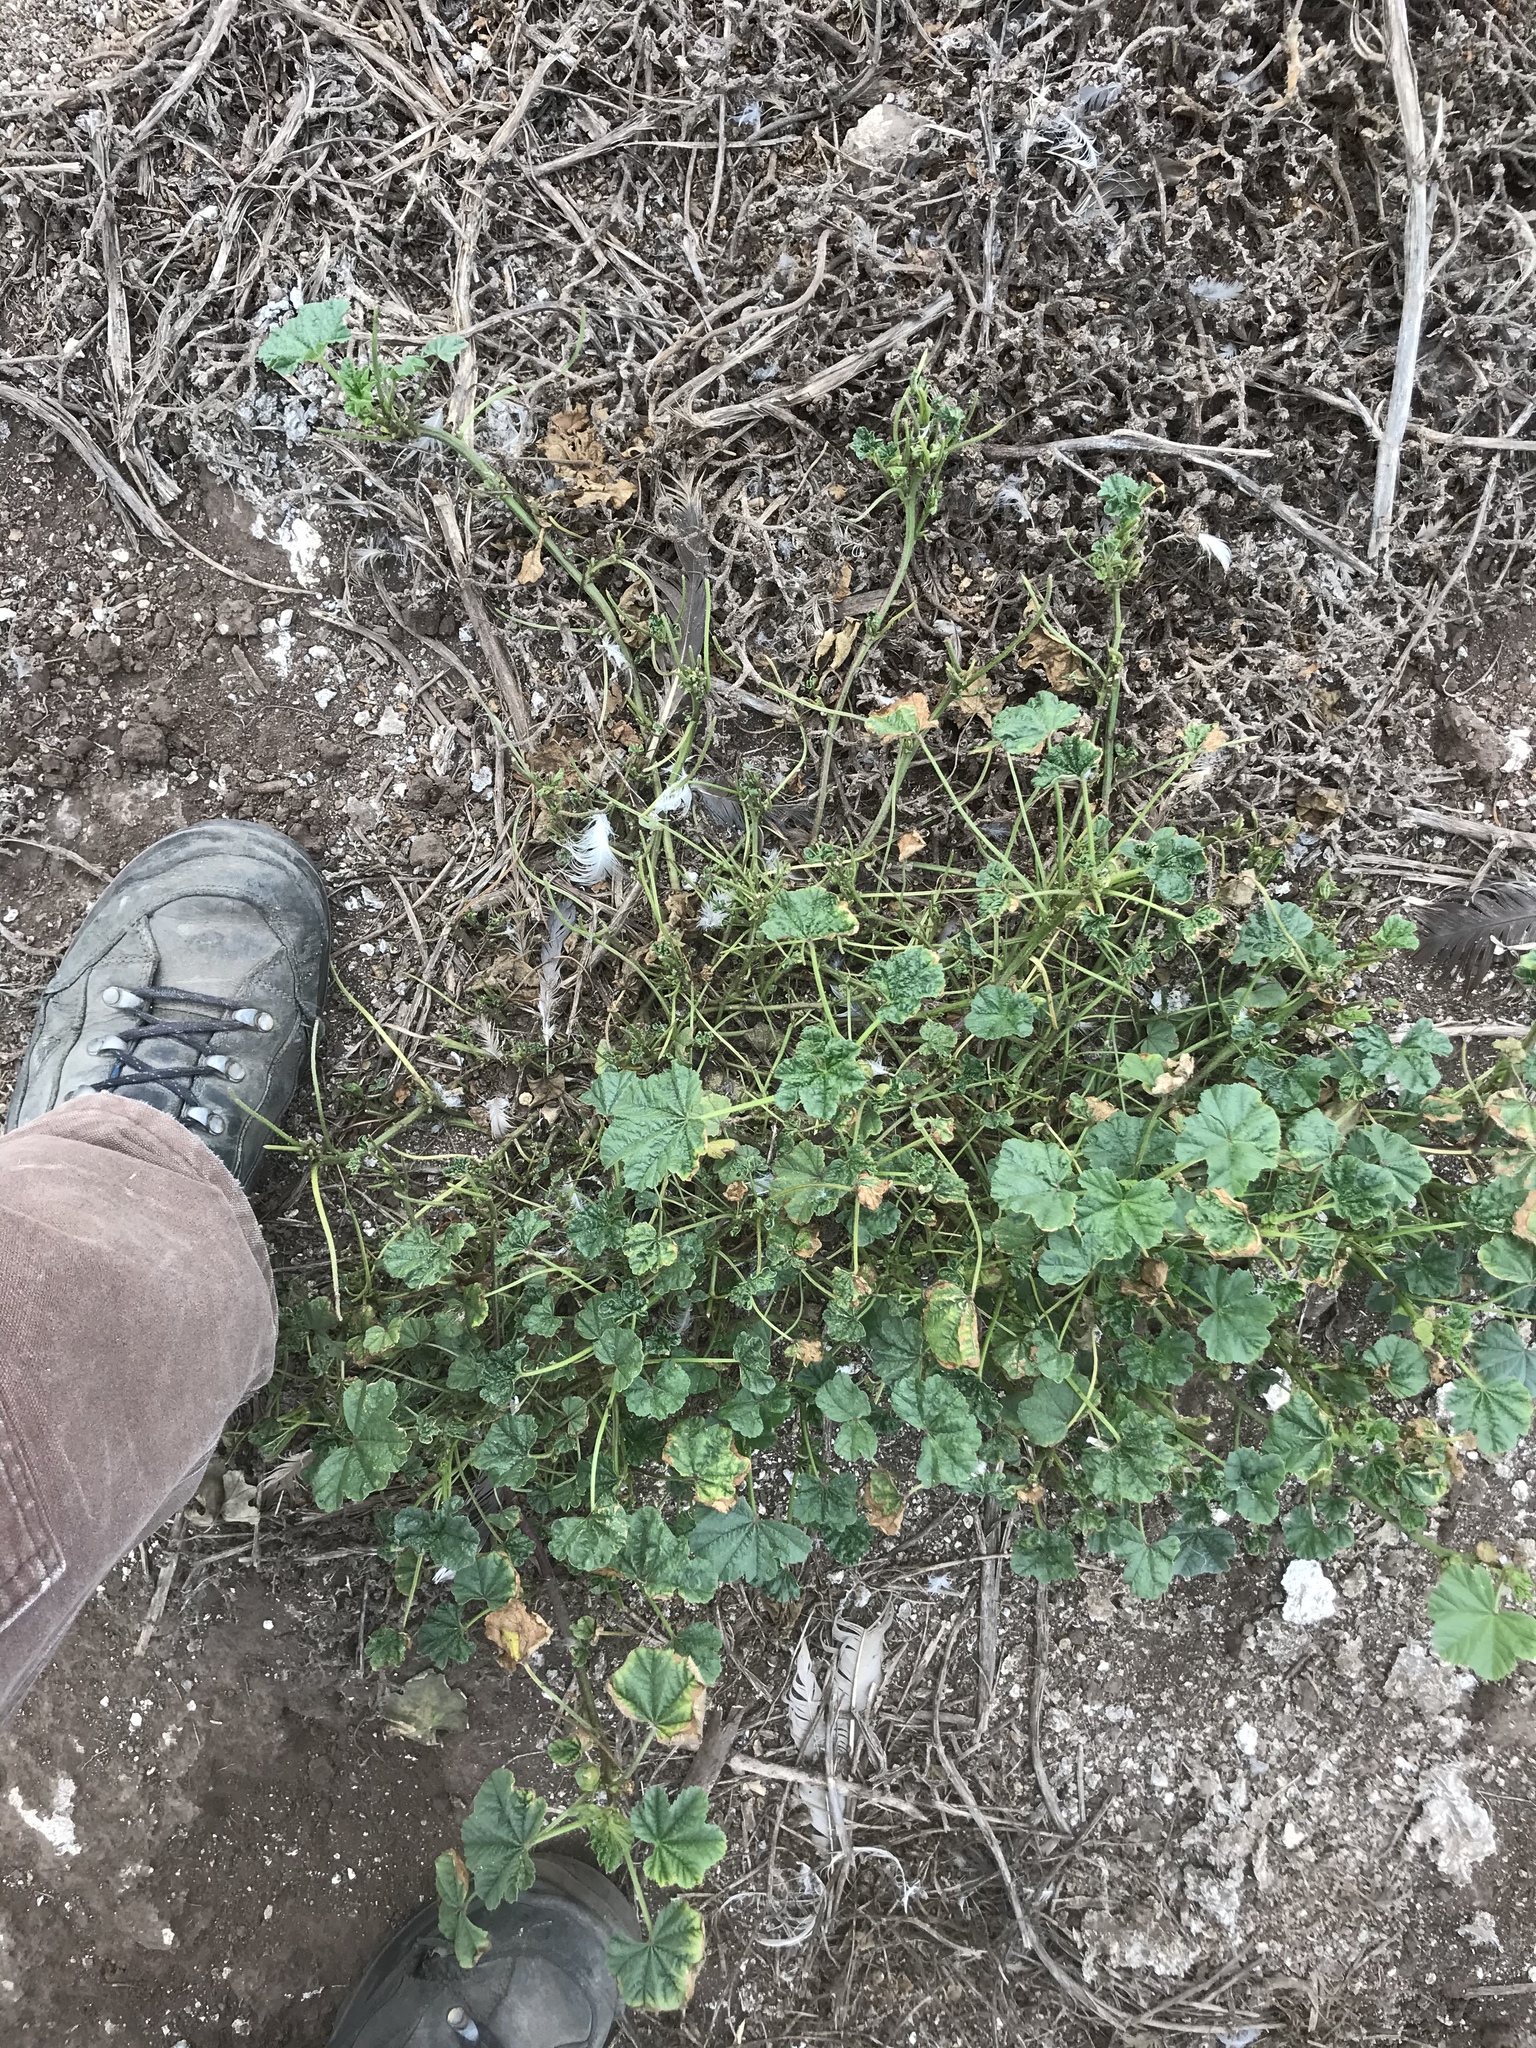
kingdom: Plantae
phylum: Tracheophyta
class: Magnoliopsida
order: Malvales
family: Malvaceae
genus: Malva
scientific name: Malva parviflora
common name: Least mallow
